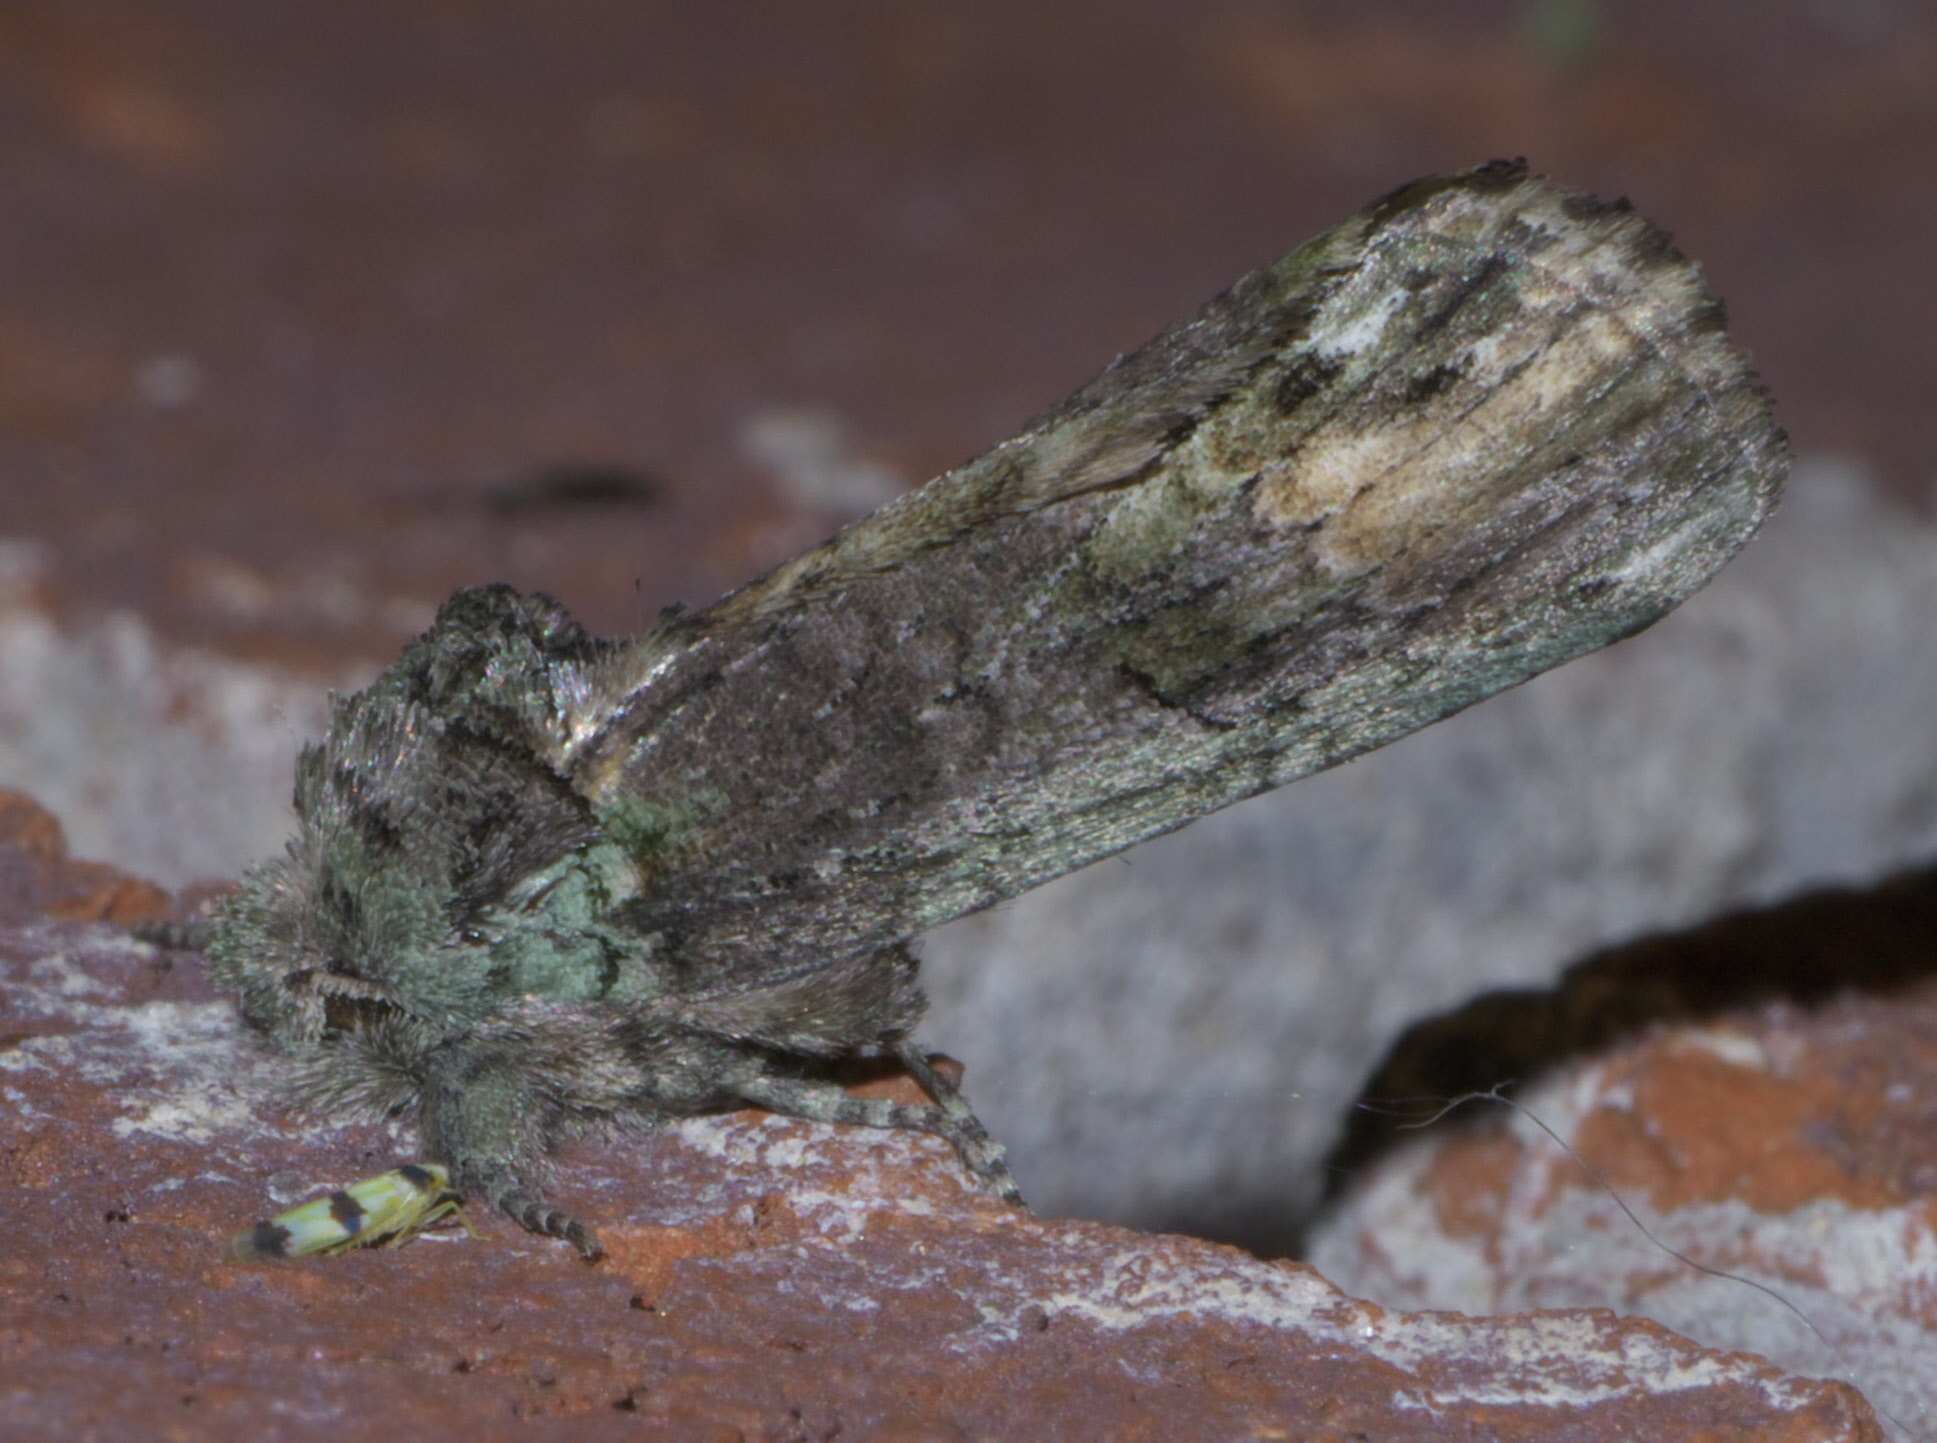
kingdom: Animalia
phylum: Arthropoda
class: Insecta
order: Lepidoptera
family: Notodontidae
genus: Schizura
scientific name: Schizura
